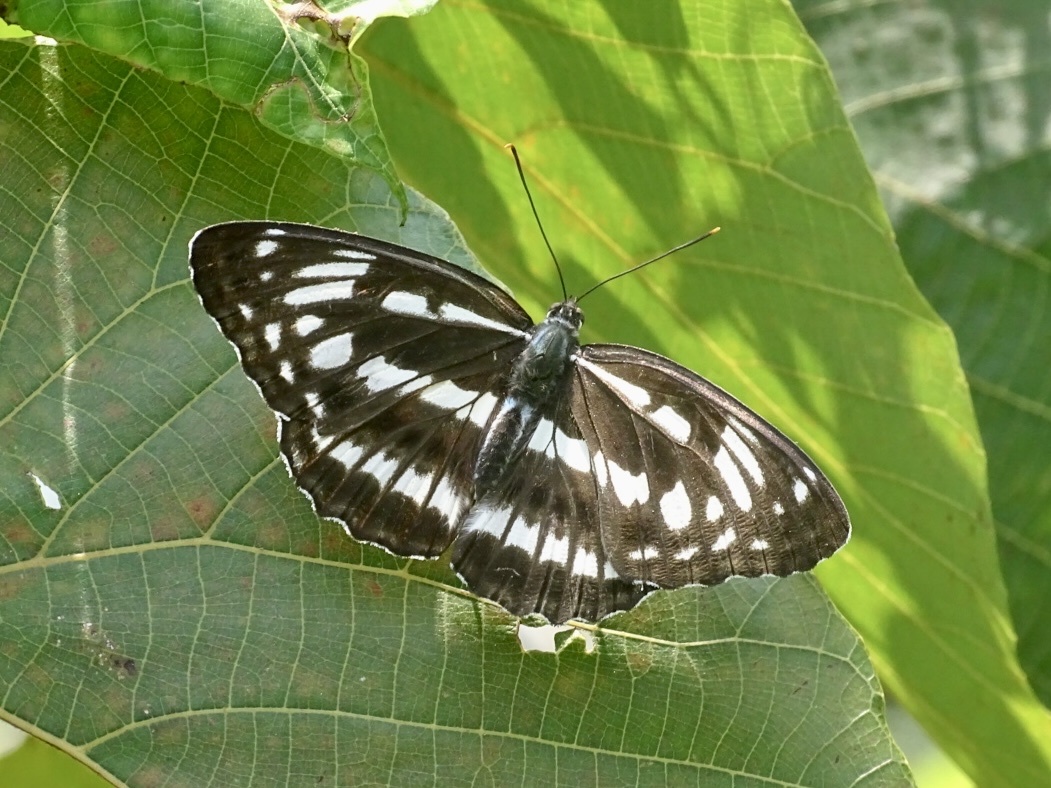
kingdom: Animalia
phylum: Arthropoda
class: Insecta
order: Lepidoptera
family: Nymphalidae
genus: Limenitis
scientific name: Limenitis sulpitia
